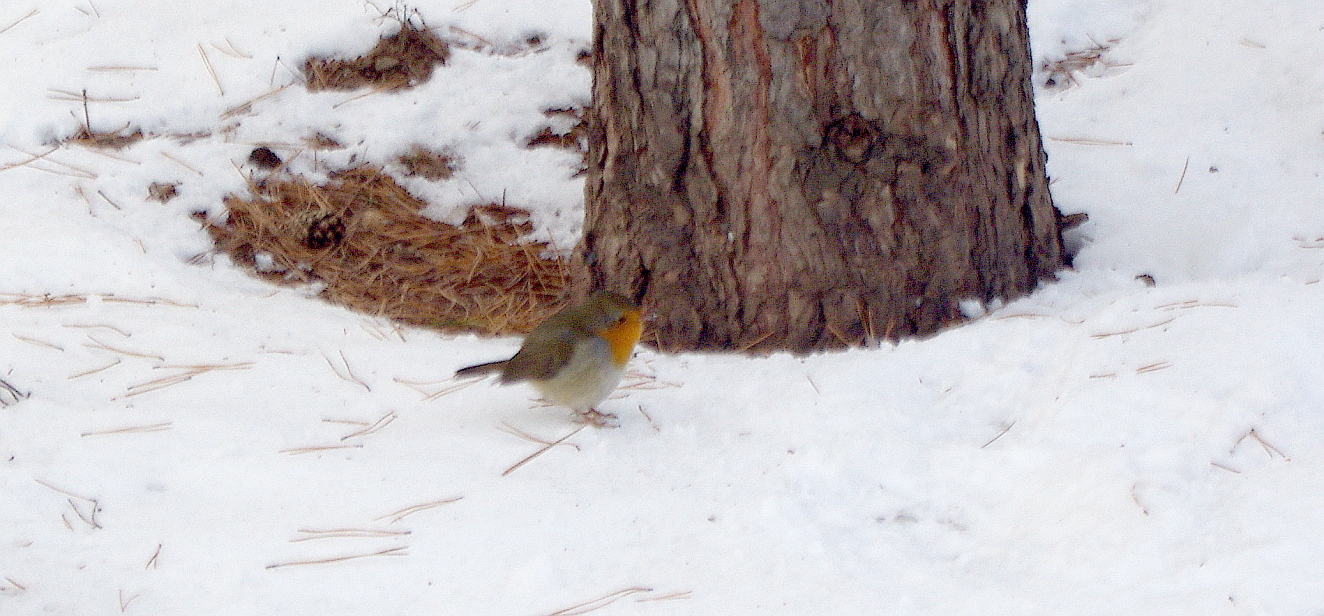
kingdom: Animalia
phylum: Chordata
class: Aves
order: Passeriformes
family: Muscicapidae
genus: Erithacus
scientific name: Erithacus rubecula
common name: European robin
